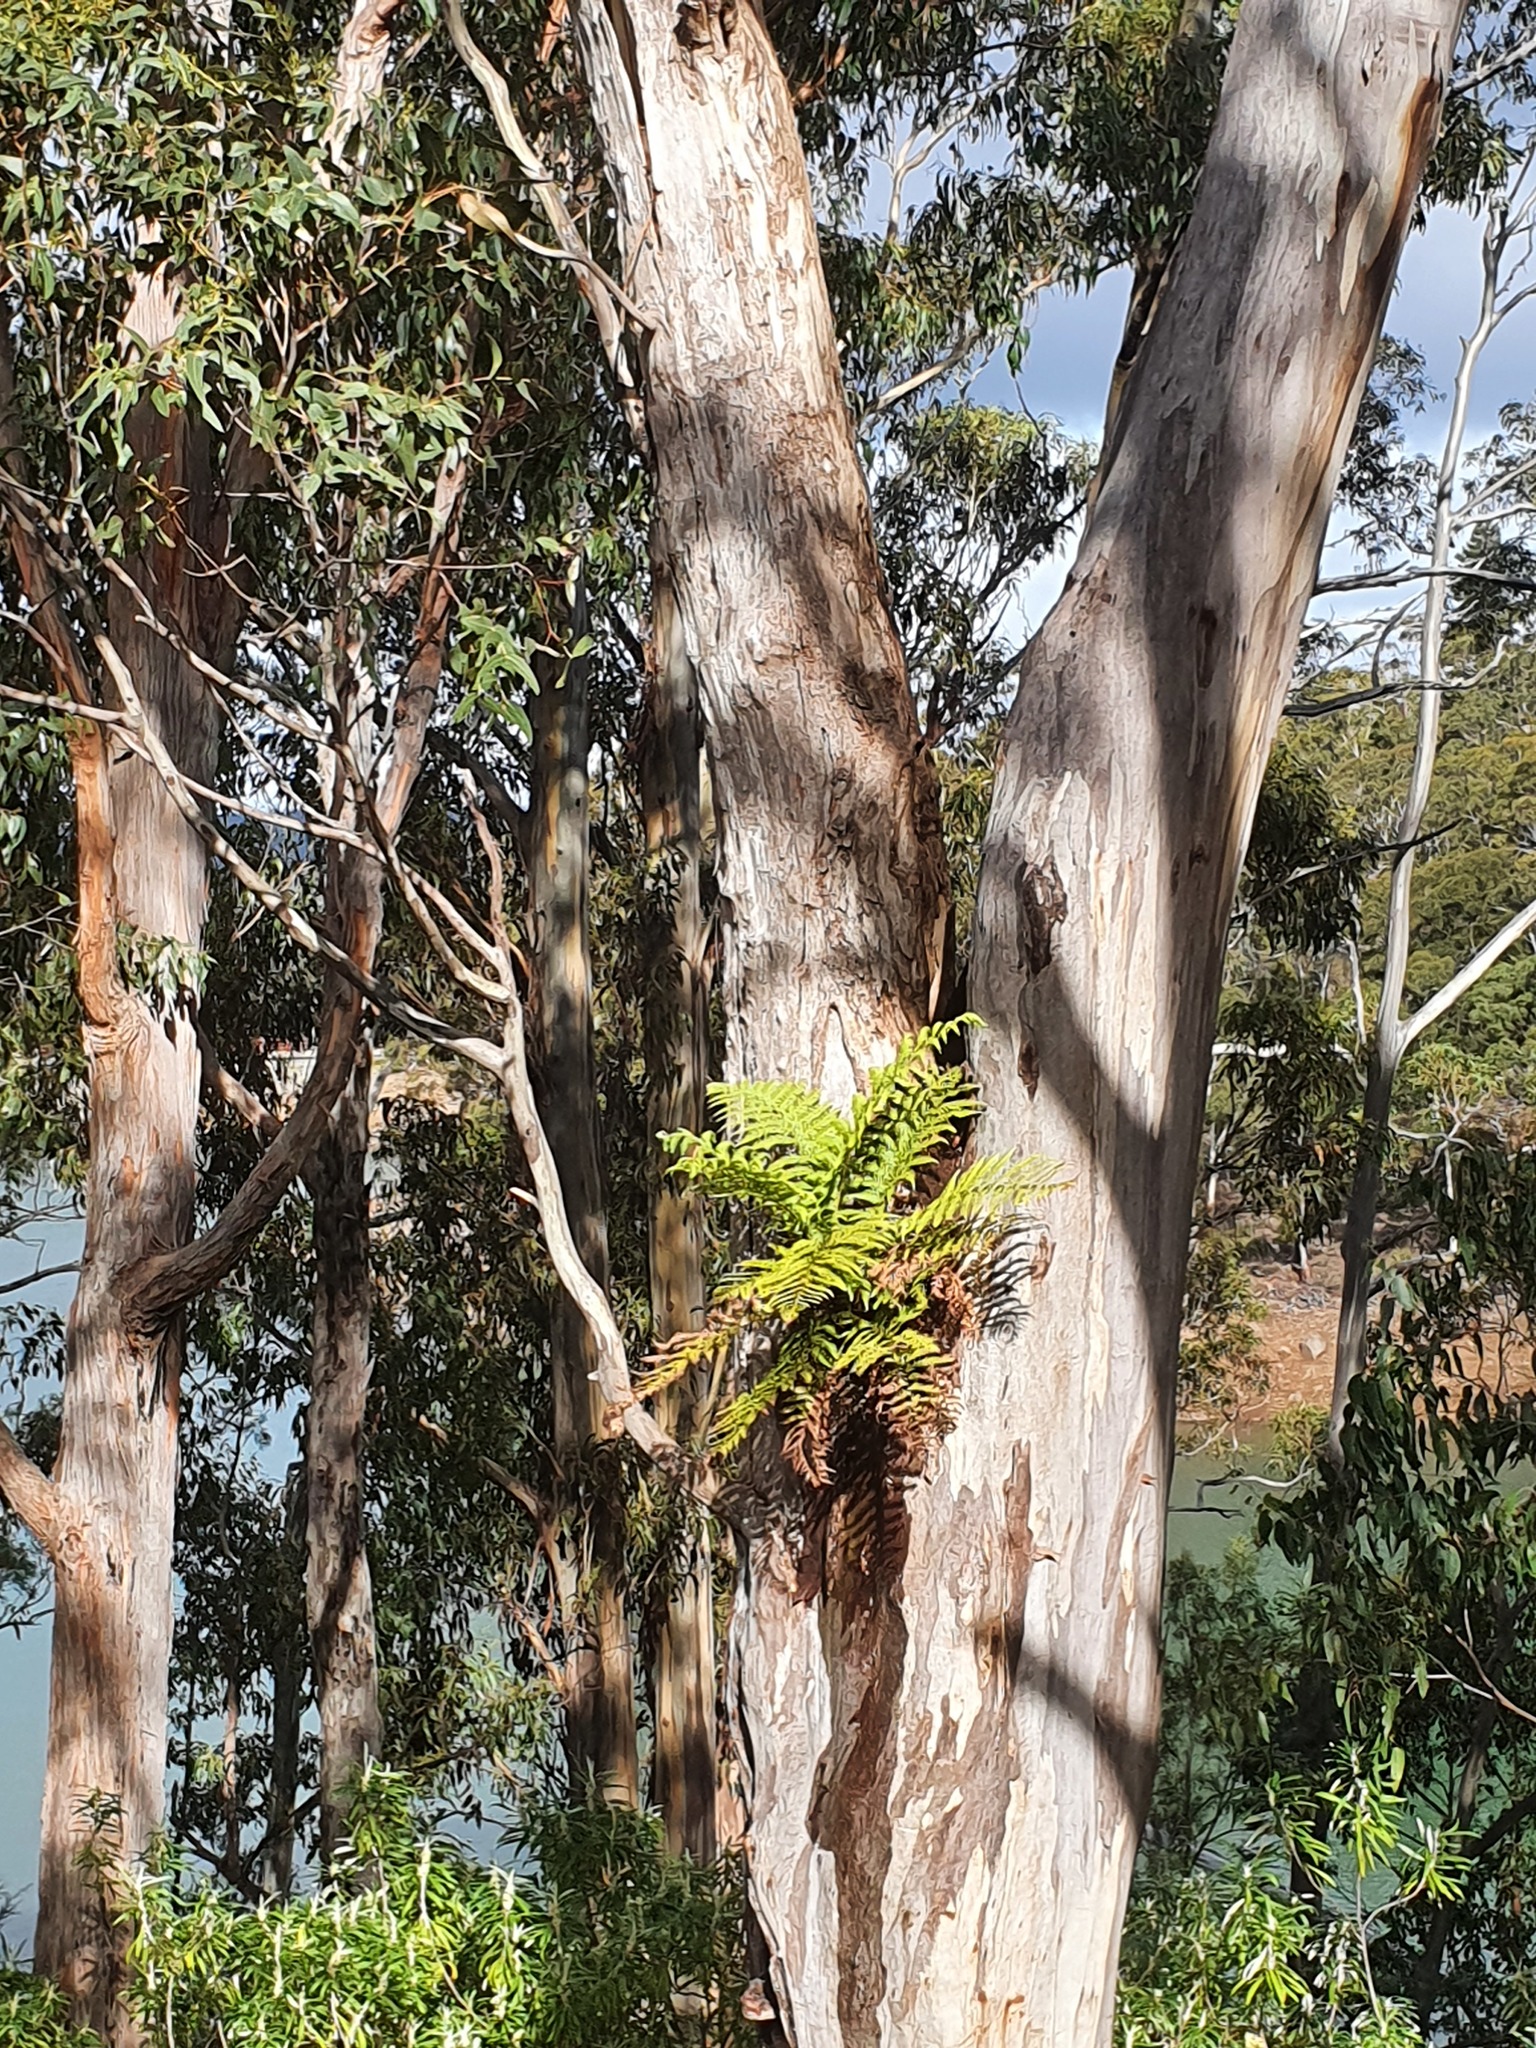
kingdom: Plantae
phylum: Tracheophyta
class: Polypodiopsida
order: Polypodiales
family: Blechnaceae
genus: Lomaria
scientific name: Lomaria nuda
